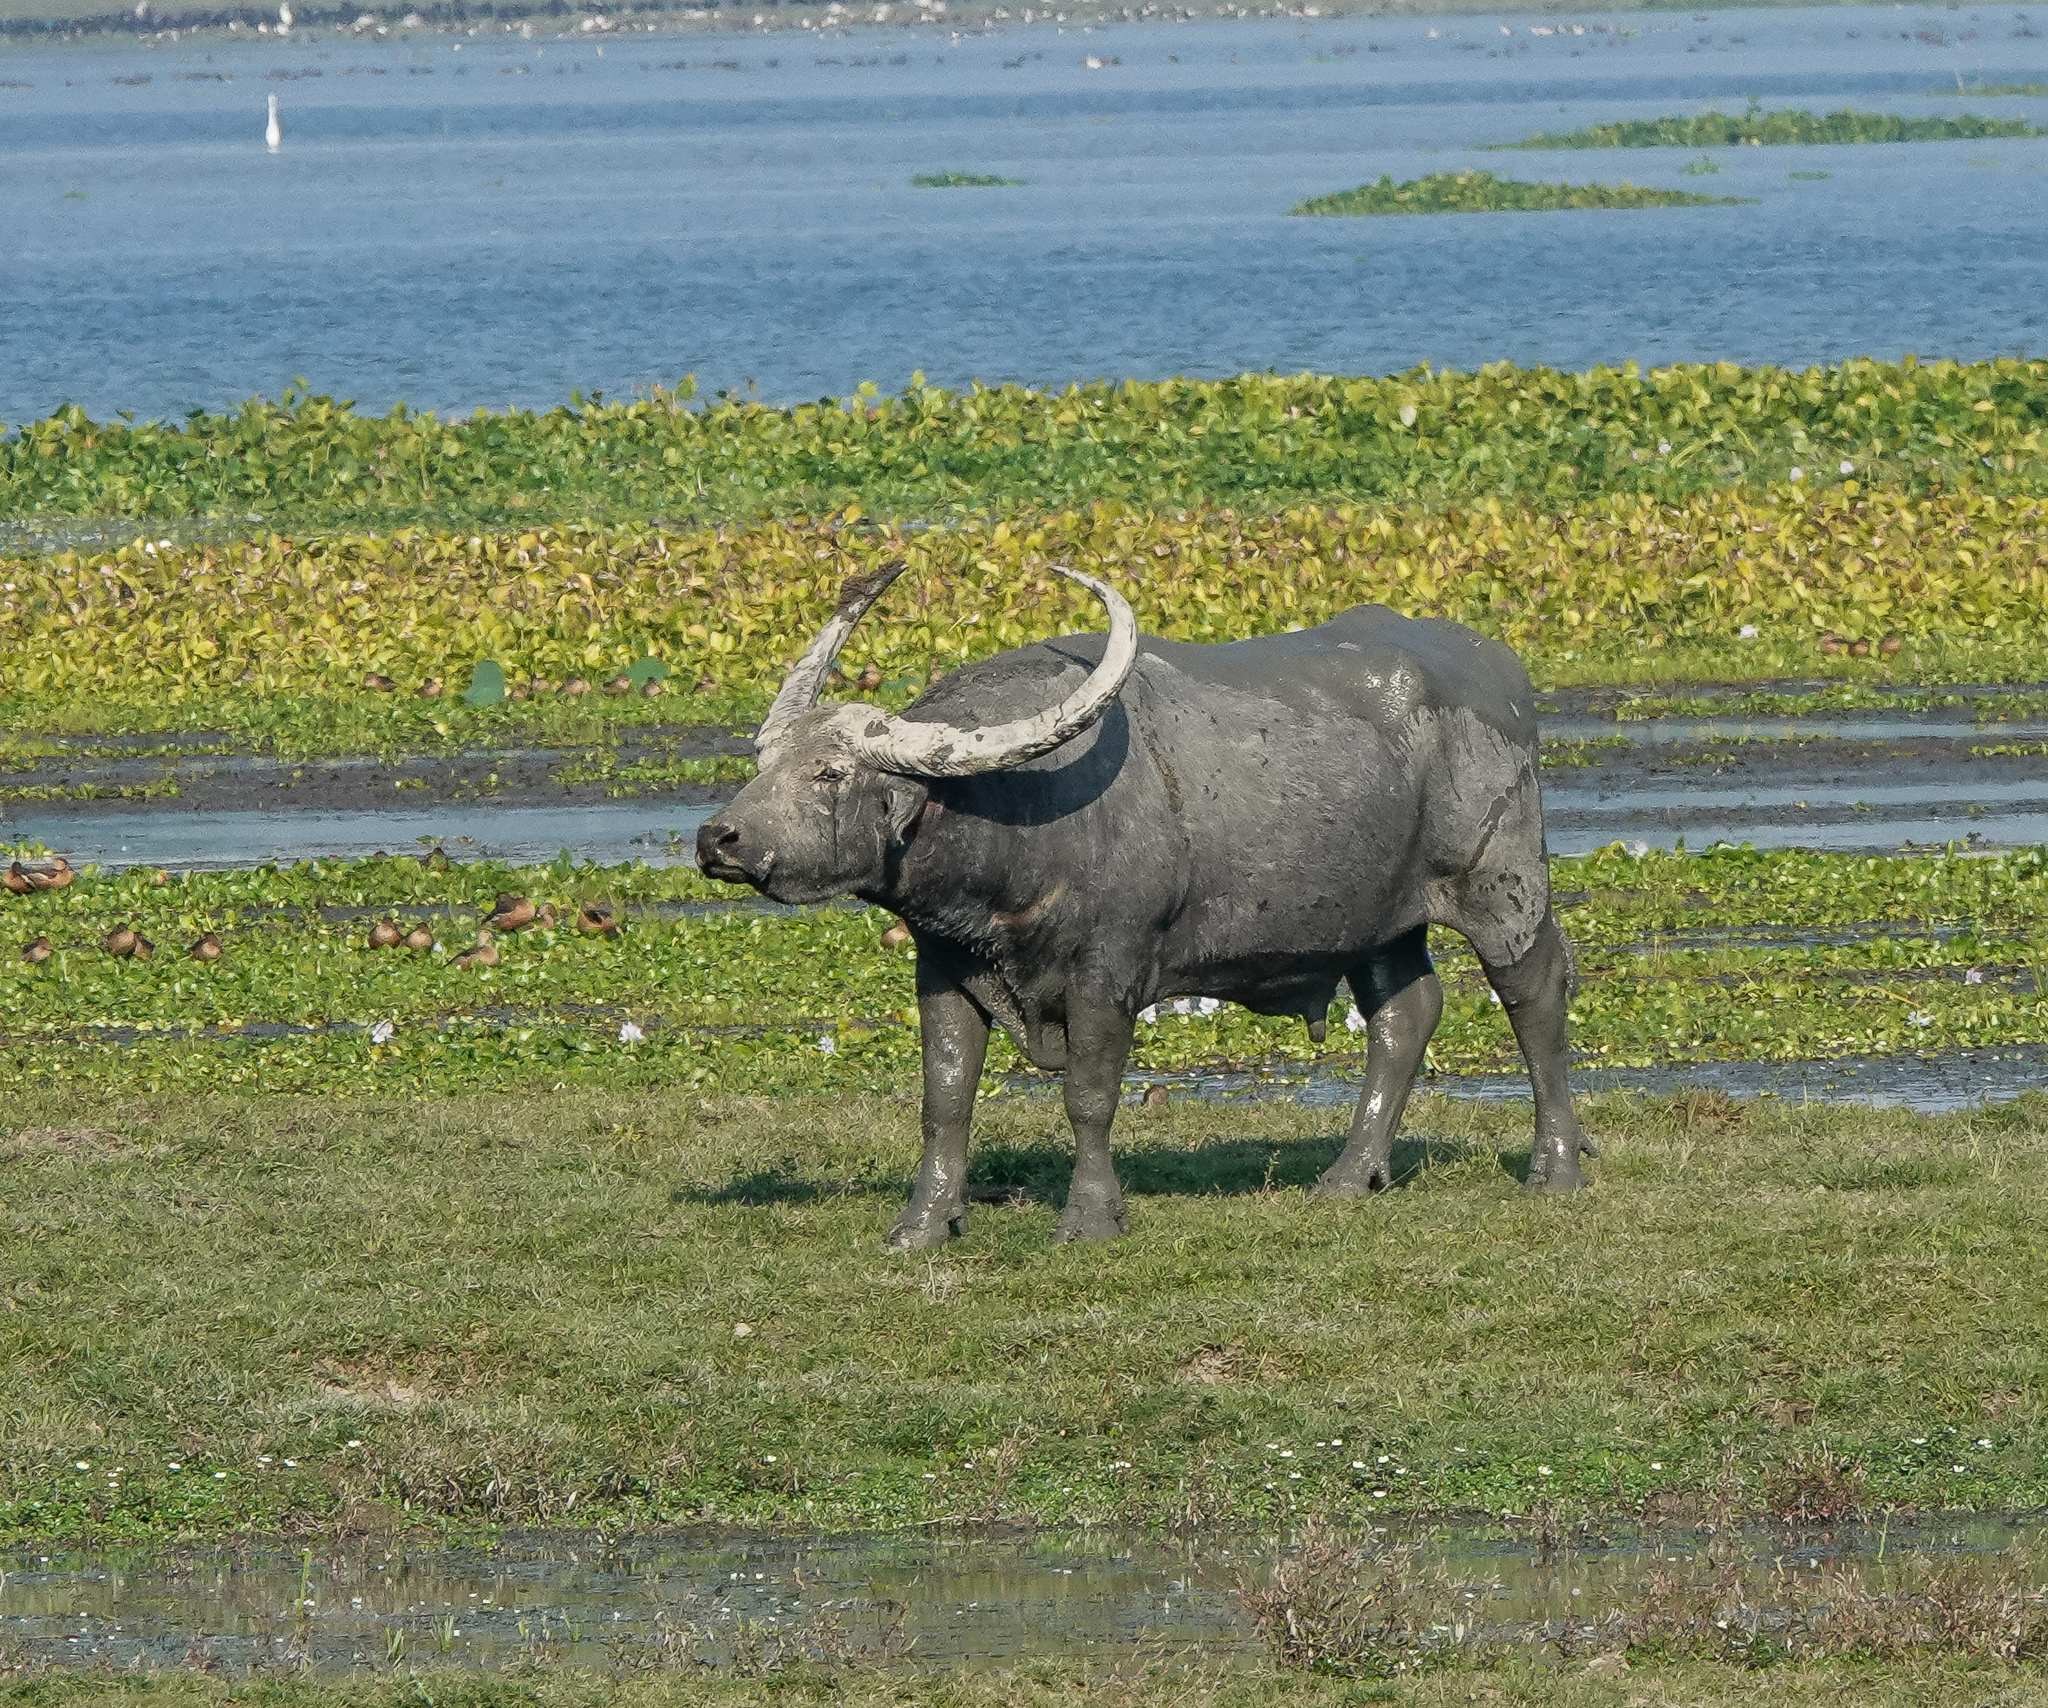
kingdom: Animalia
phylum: Chordata
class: Mammalia
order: Artiodactyla
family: Bovidae
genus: Bubalus
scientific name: Bubalus bubalis
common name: Water buffalo
